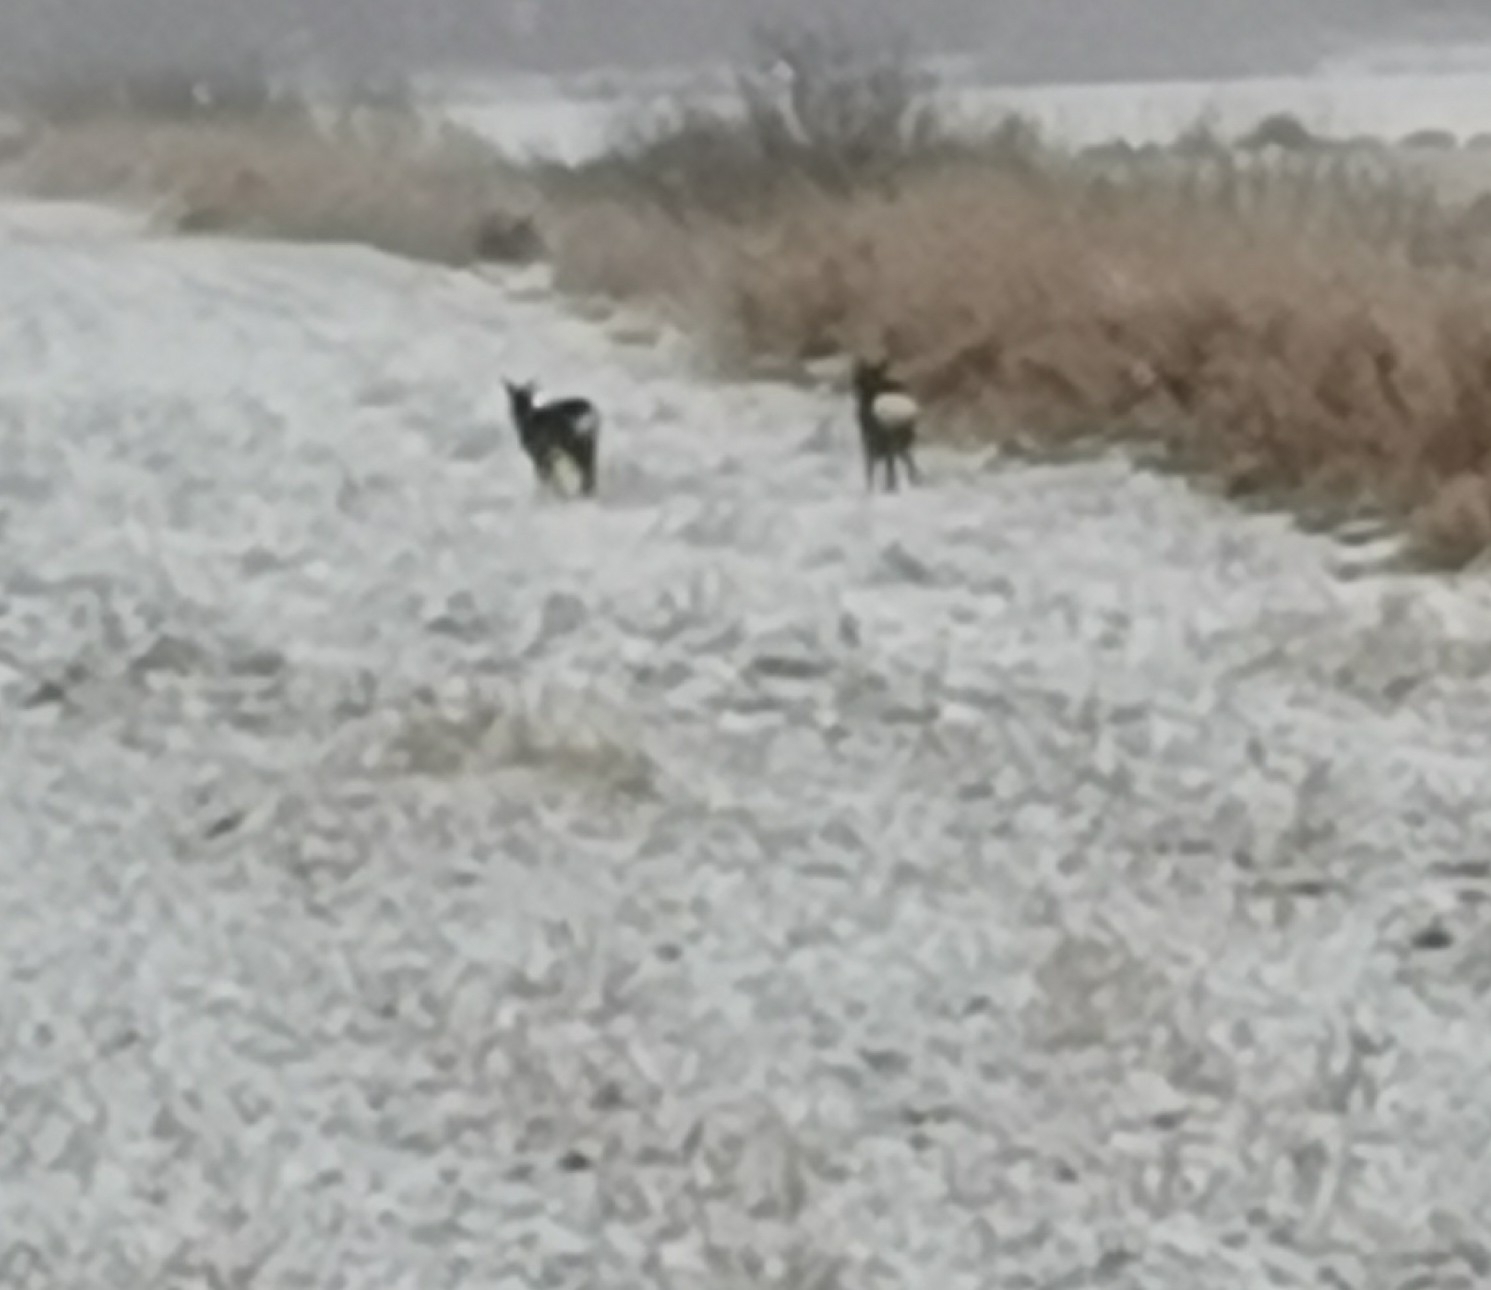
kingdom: Animalia
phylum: Chordata
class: Mammalia
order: Artiodactyla
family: Cervidae
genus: Capreolus
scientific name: Capreolus capreolus
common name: Western roe deer
